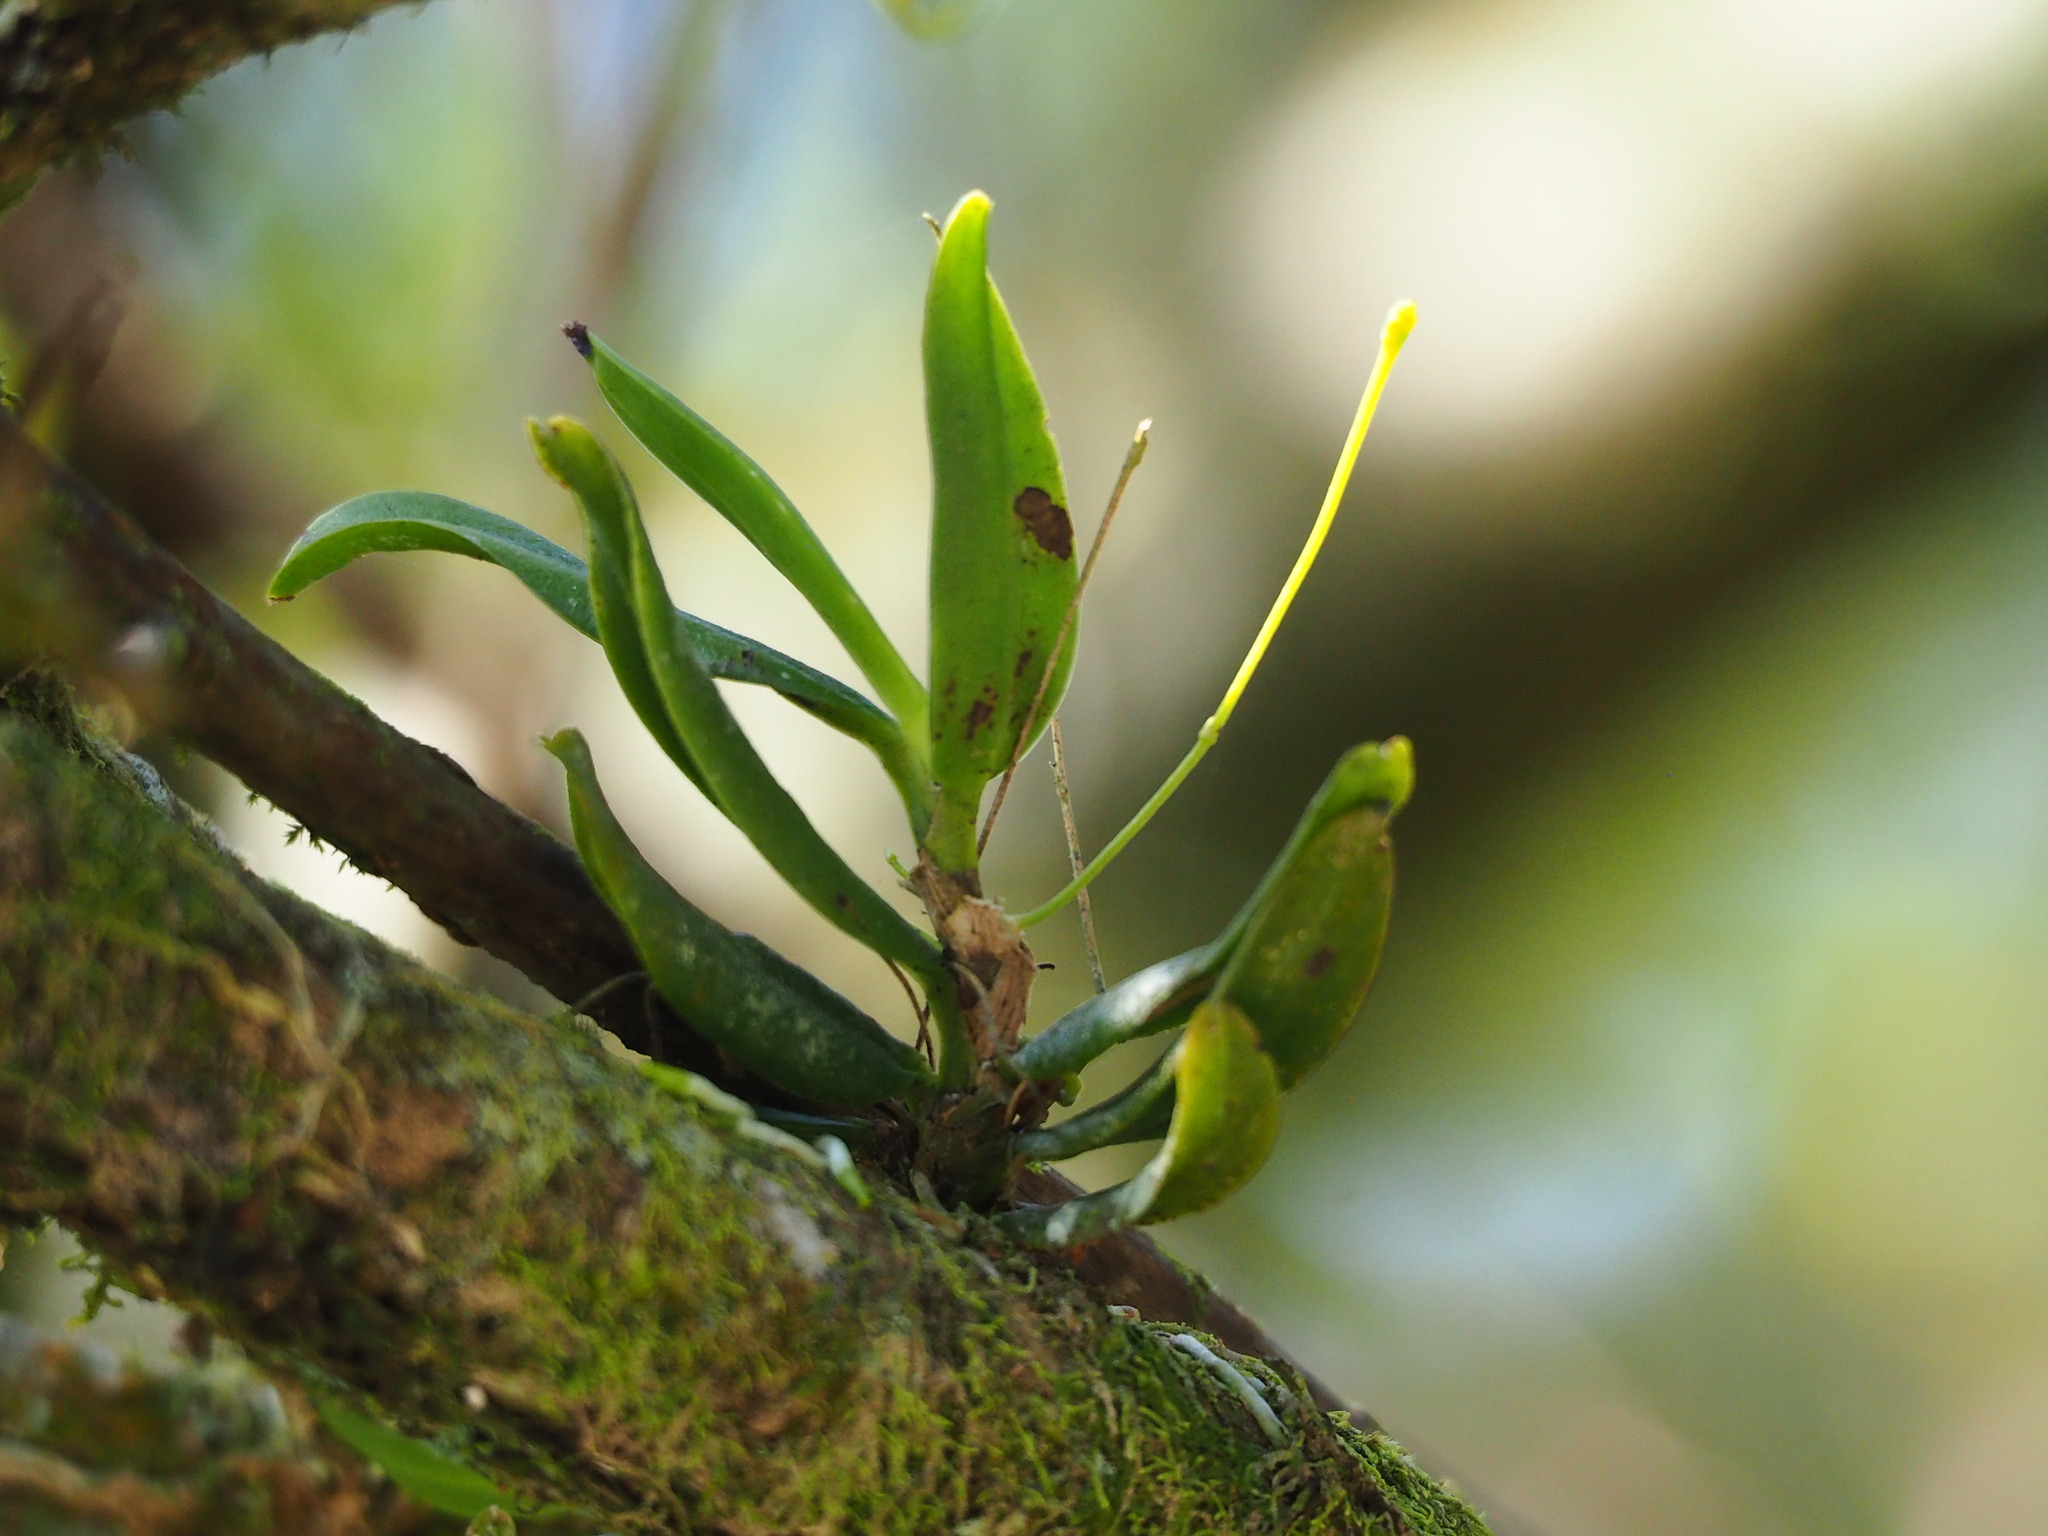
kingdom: Plantae
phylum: Tracheophyta
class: Liliopsida
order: Asparagales
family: Orchidaceae
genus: Thrixspermum
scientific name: Thrixspermum fantasticum
